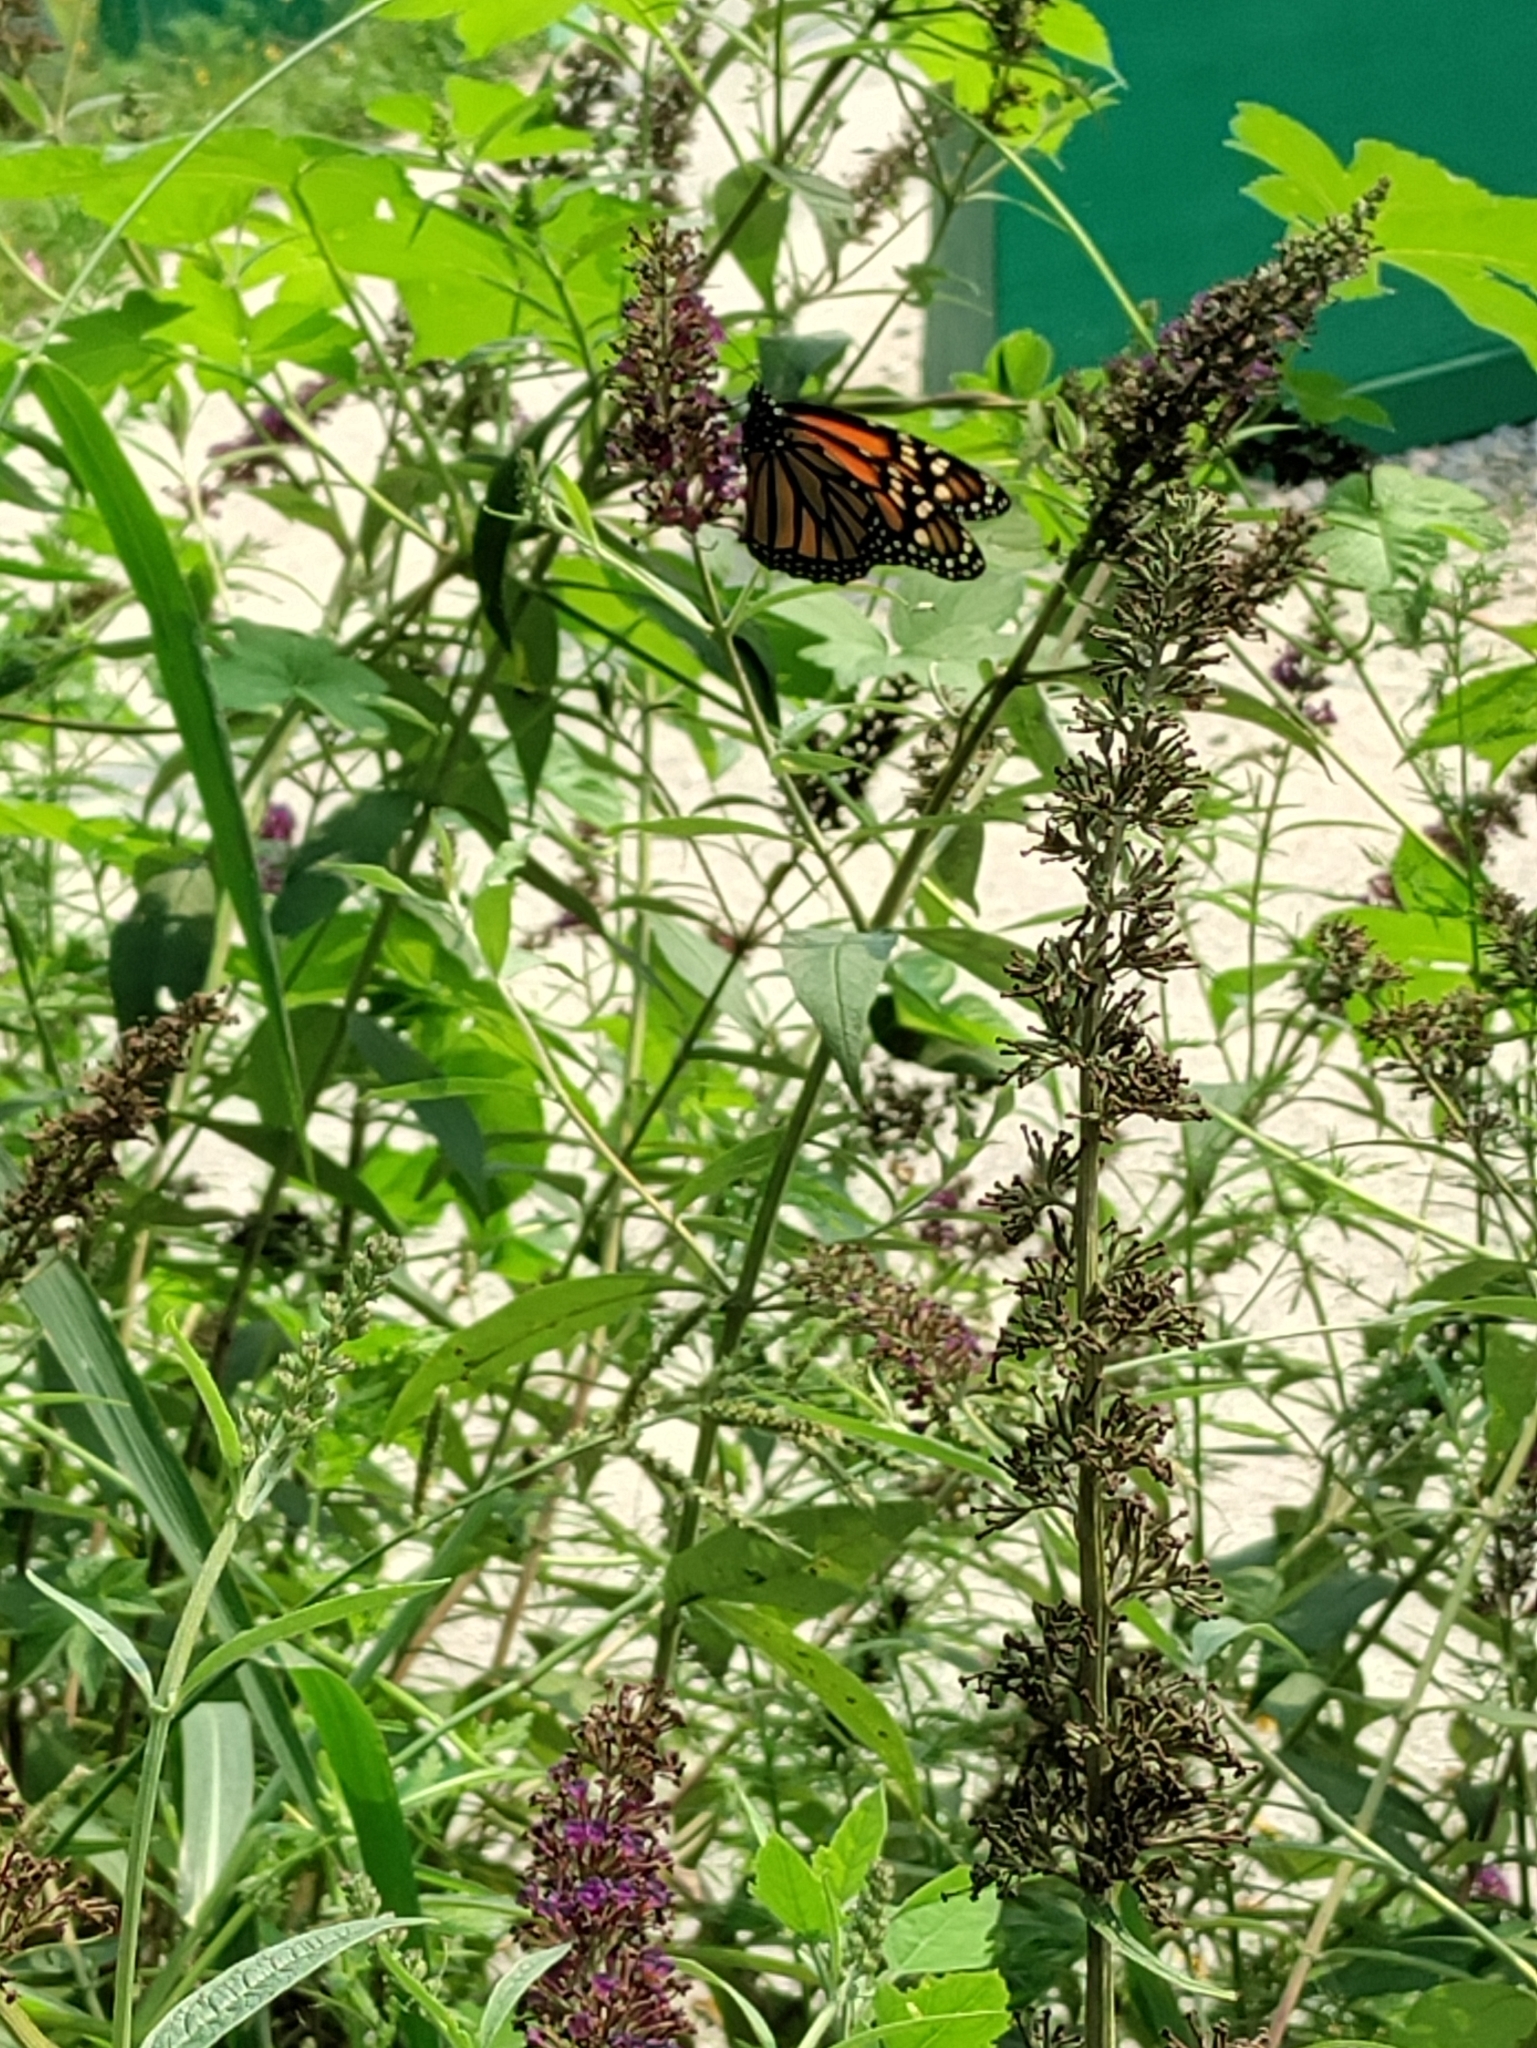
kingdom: Animalia
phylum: Arthropoda
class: Insecta
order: Lepidoptera
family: Nymphalidae
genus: Danaus
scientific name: Danaus plexippus
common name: Monarch
